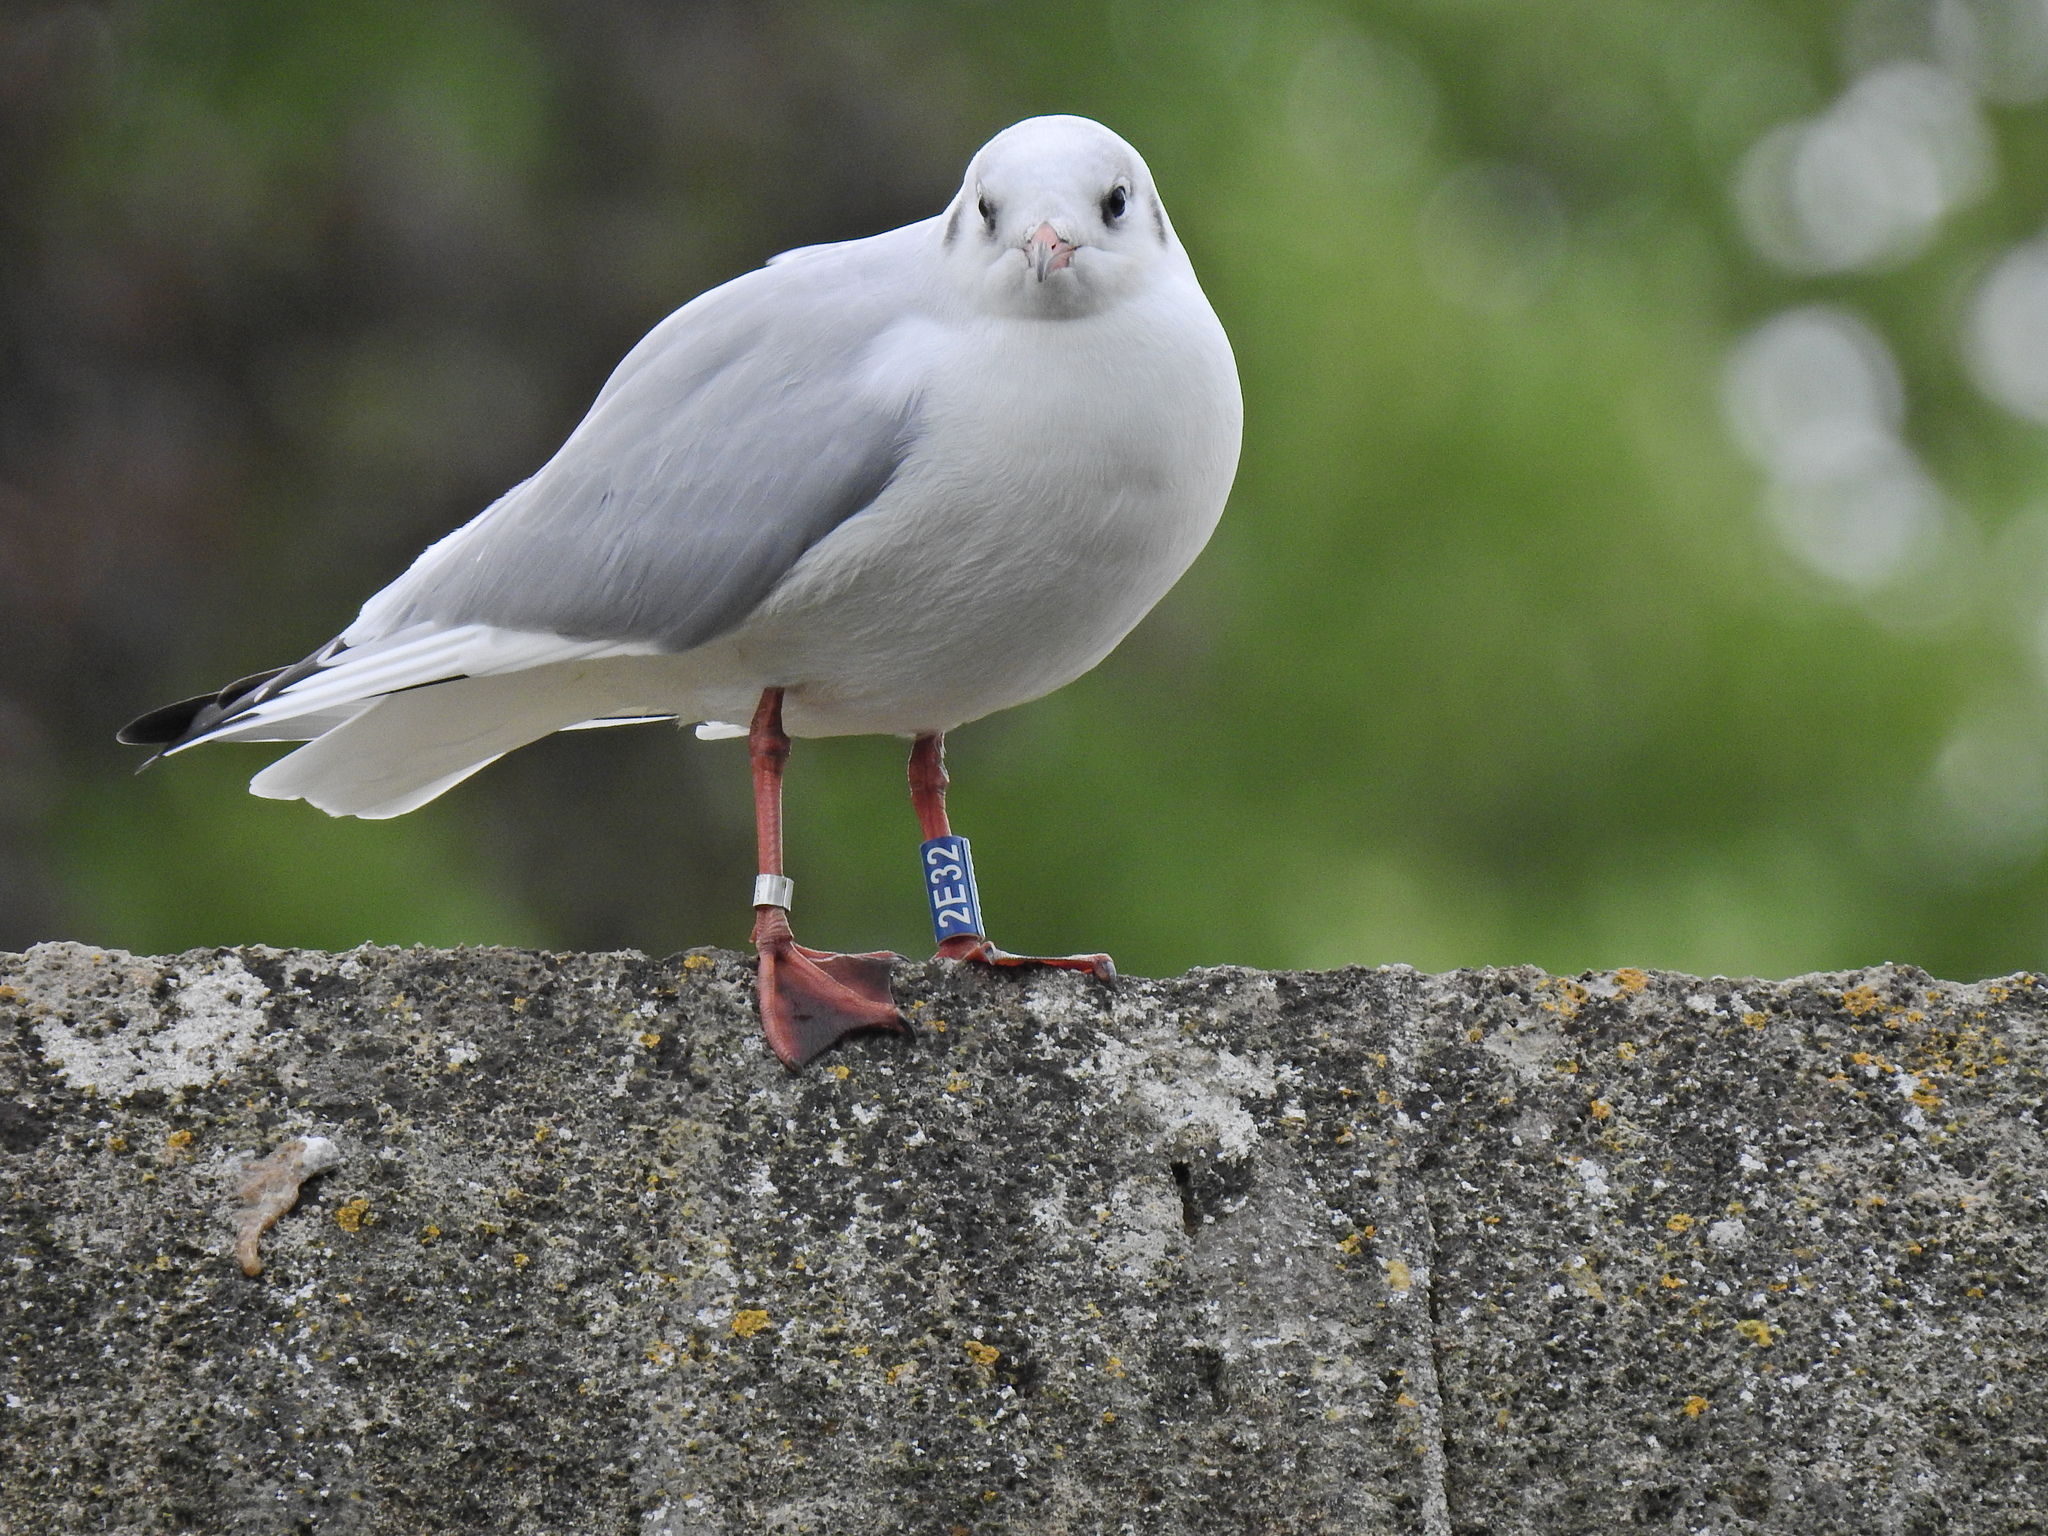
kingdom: Animalia
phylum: Chordata
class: Aves
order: Charadriiformes
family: Laridae
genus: Chroicocephalus
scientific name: Chroicocephalus ridibundus
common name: Black-headed gull
